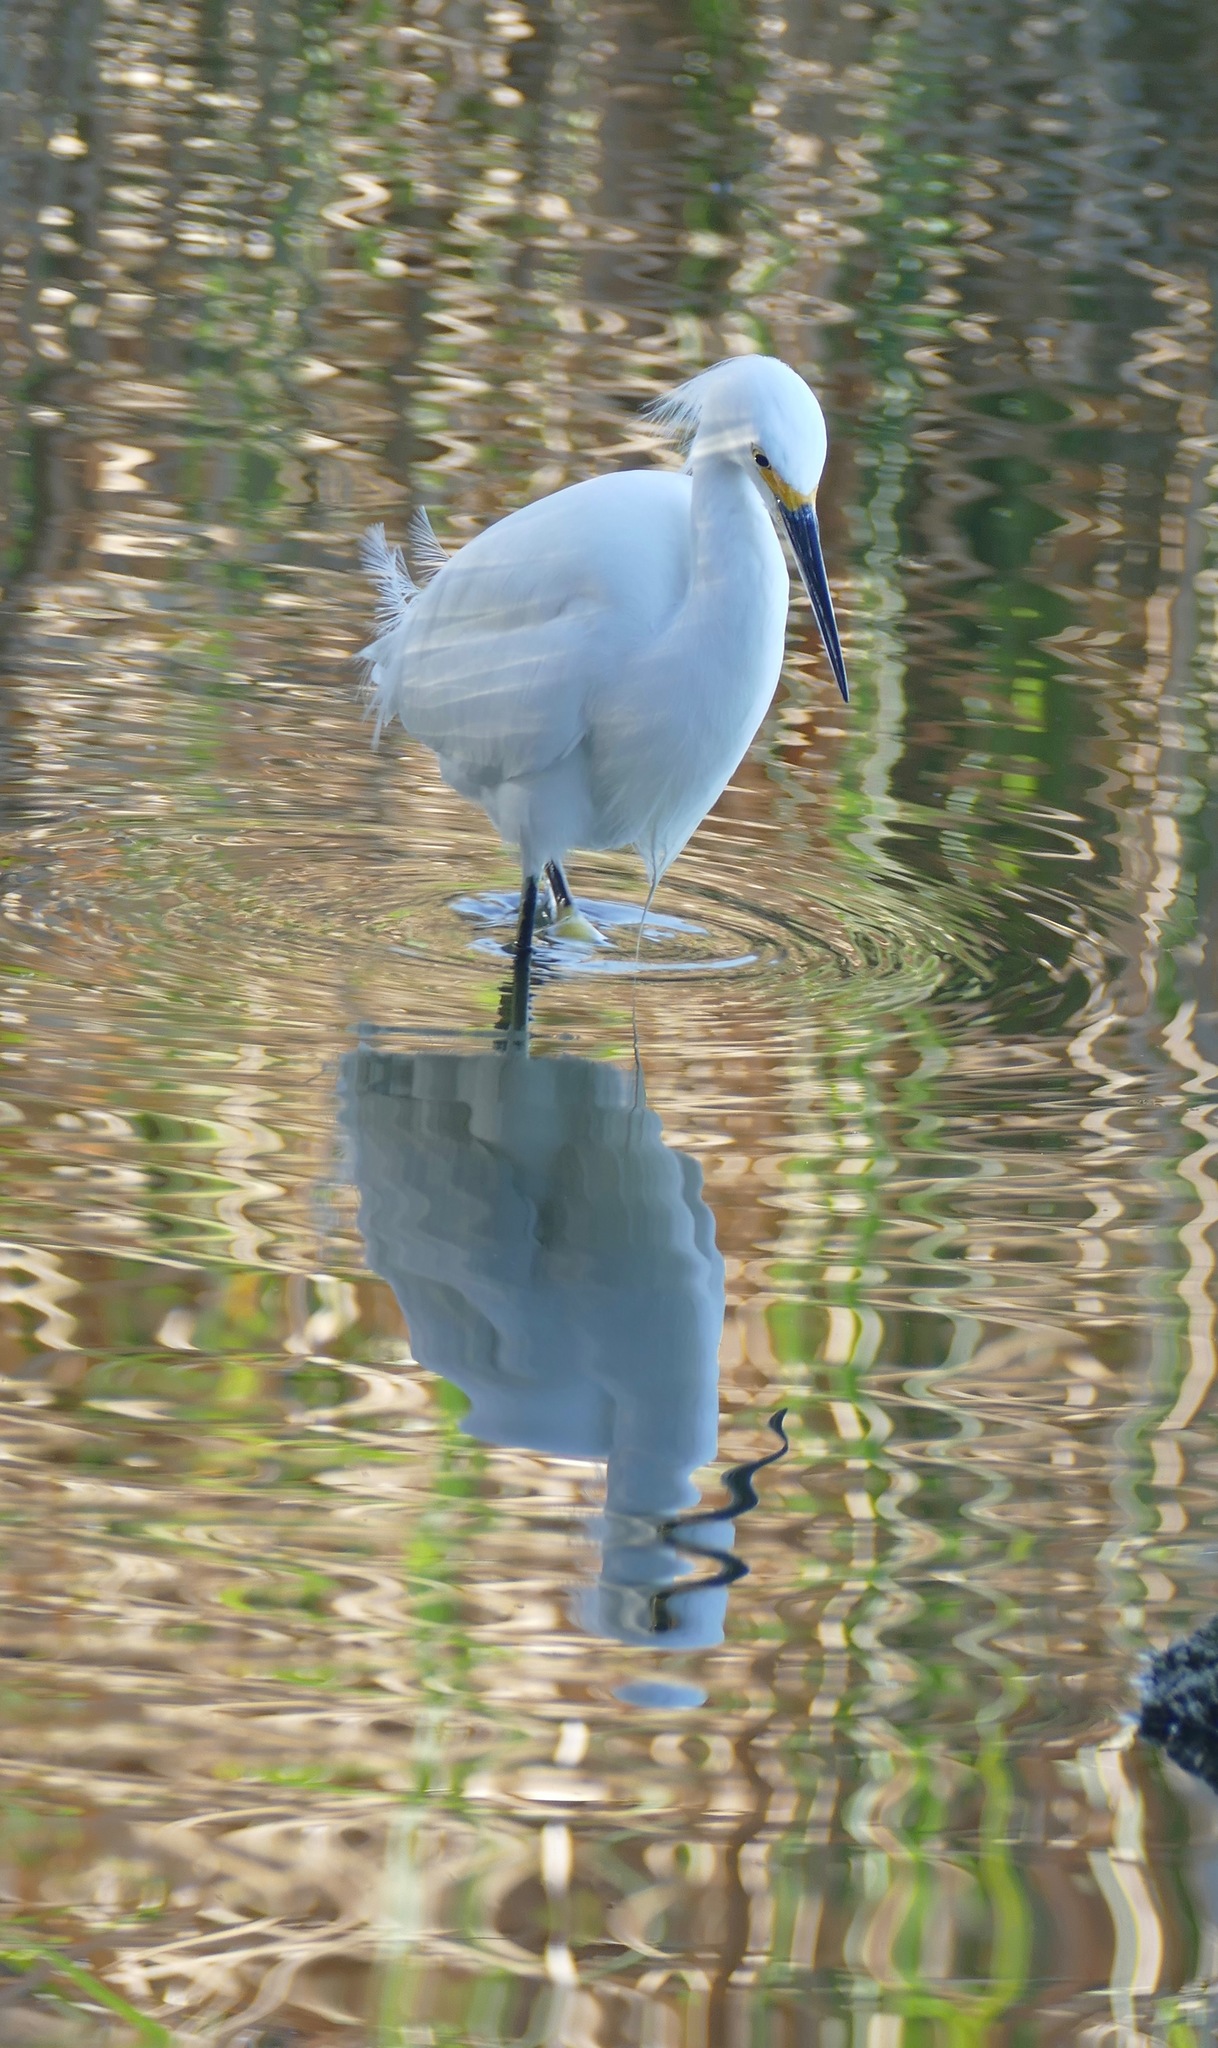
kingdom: Animalia
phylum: Chordata
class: Aves
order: Pelecaniformes
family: Ardeidae
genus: Egretta
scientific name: Egretta thula
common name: Snowy egret
